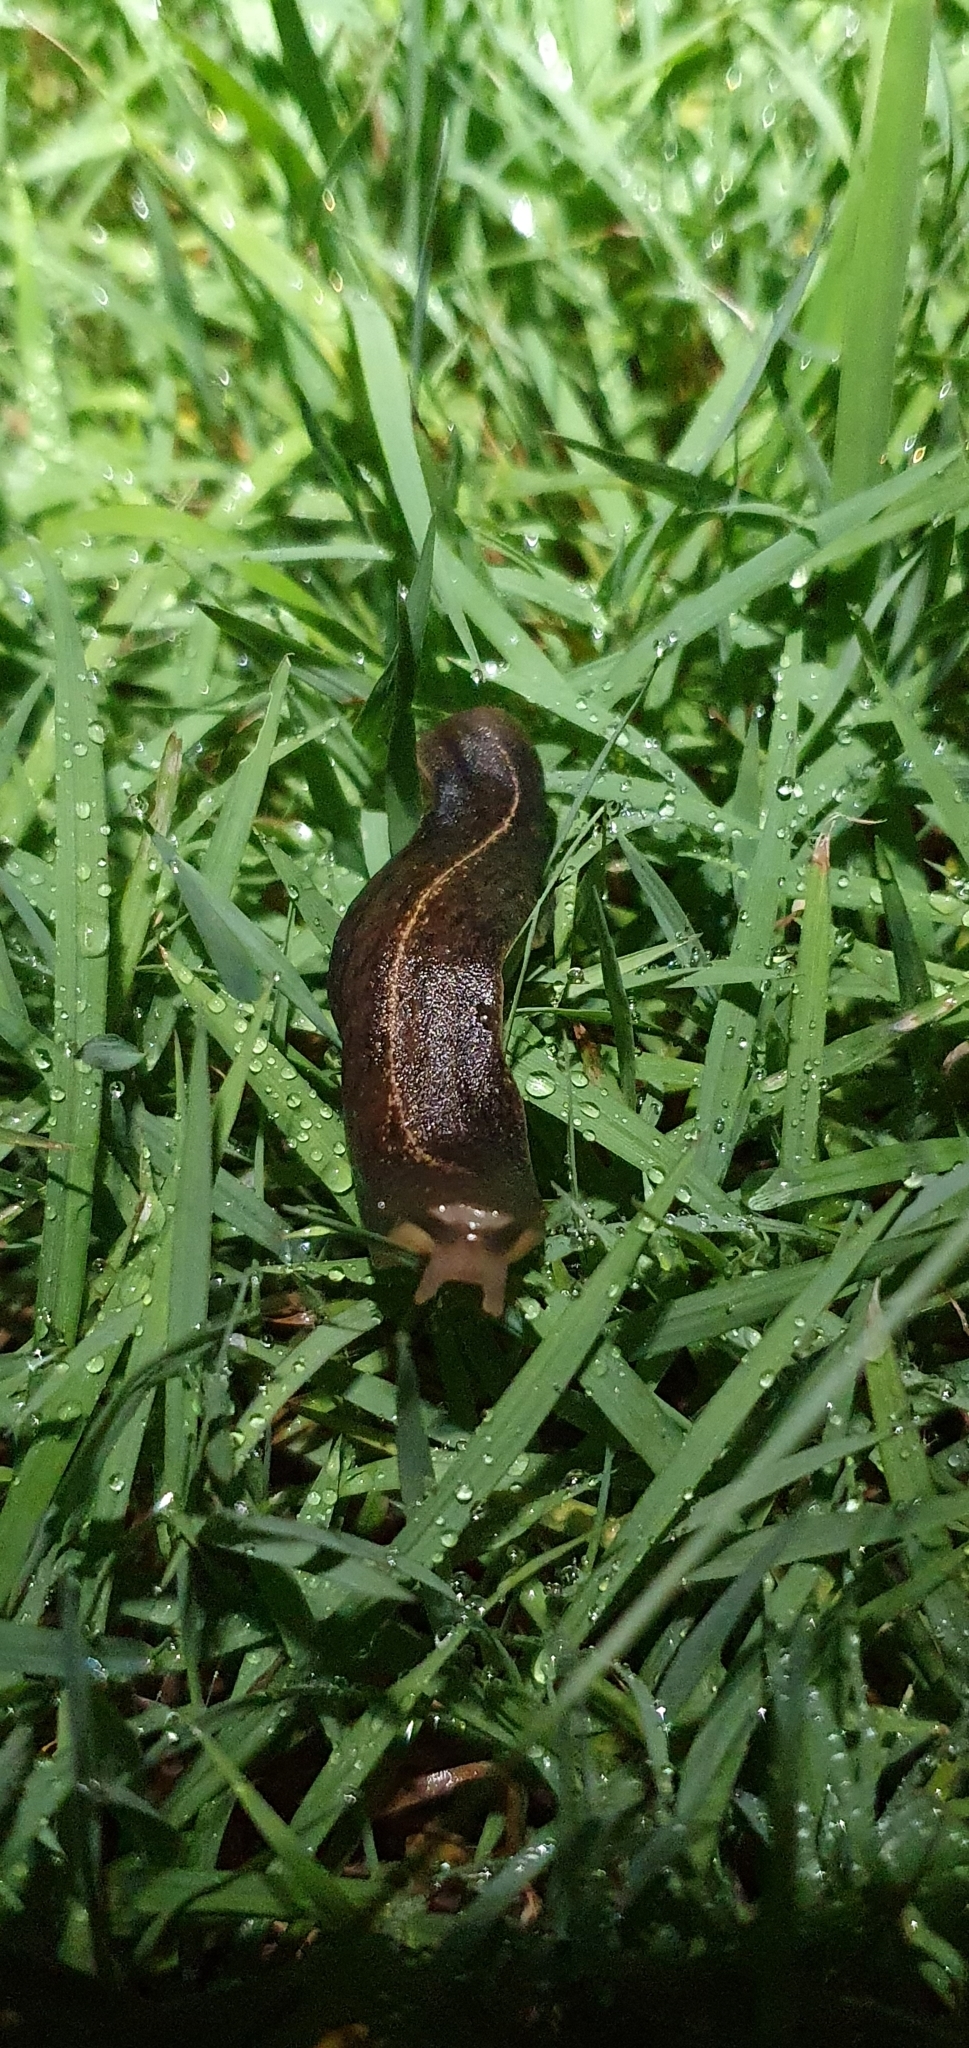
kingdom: Animalia
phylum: Mollusca
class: Gastropoda
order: Systellommatophora
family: Veronicellidae
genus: Laevicaulis
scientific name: Laevicaulis alte
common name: Tropical leatherleaf
